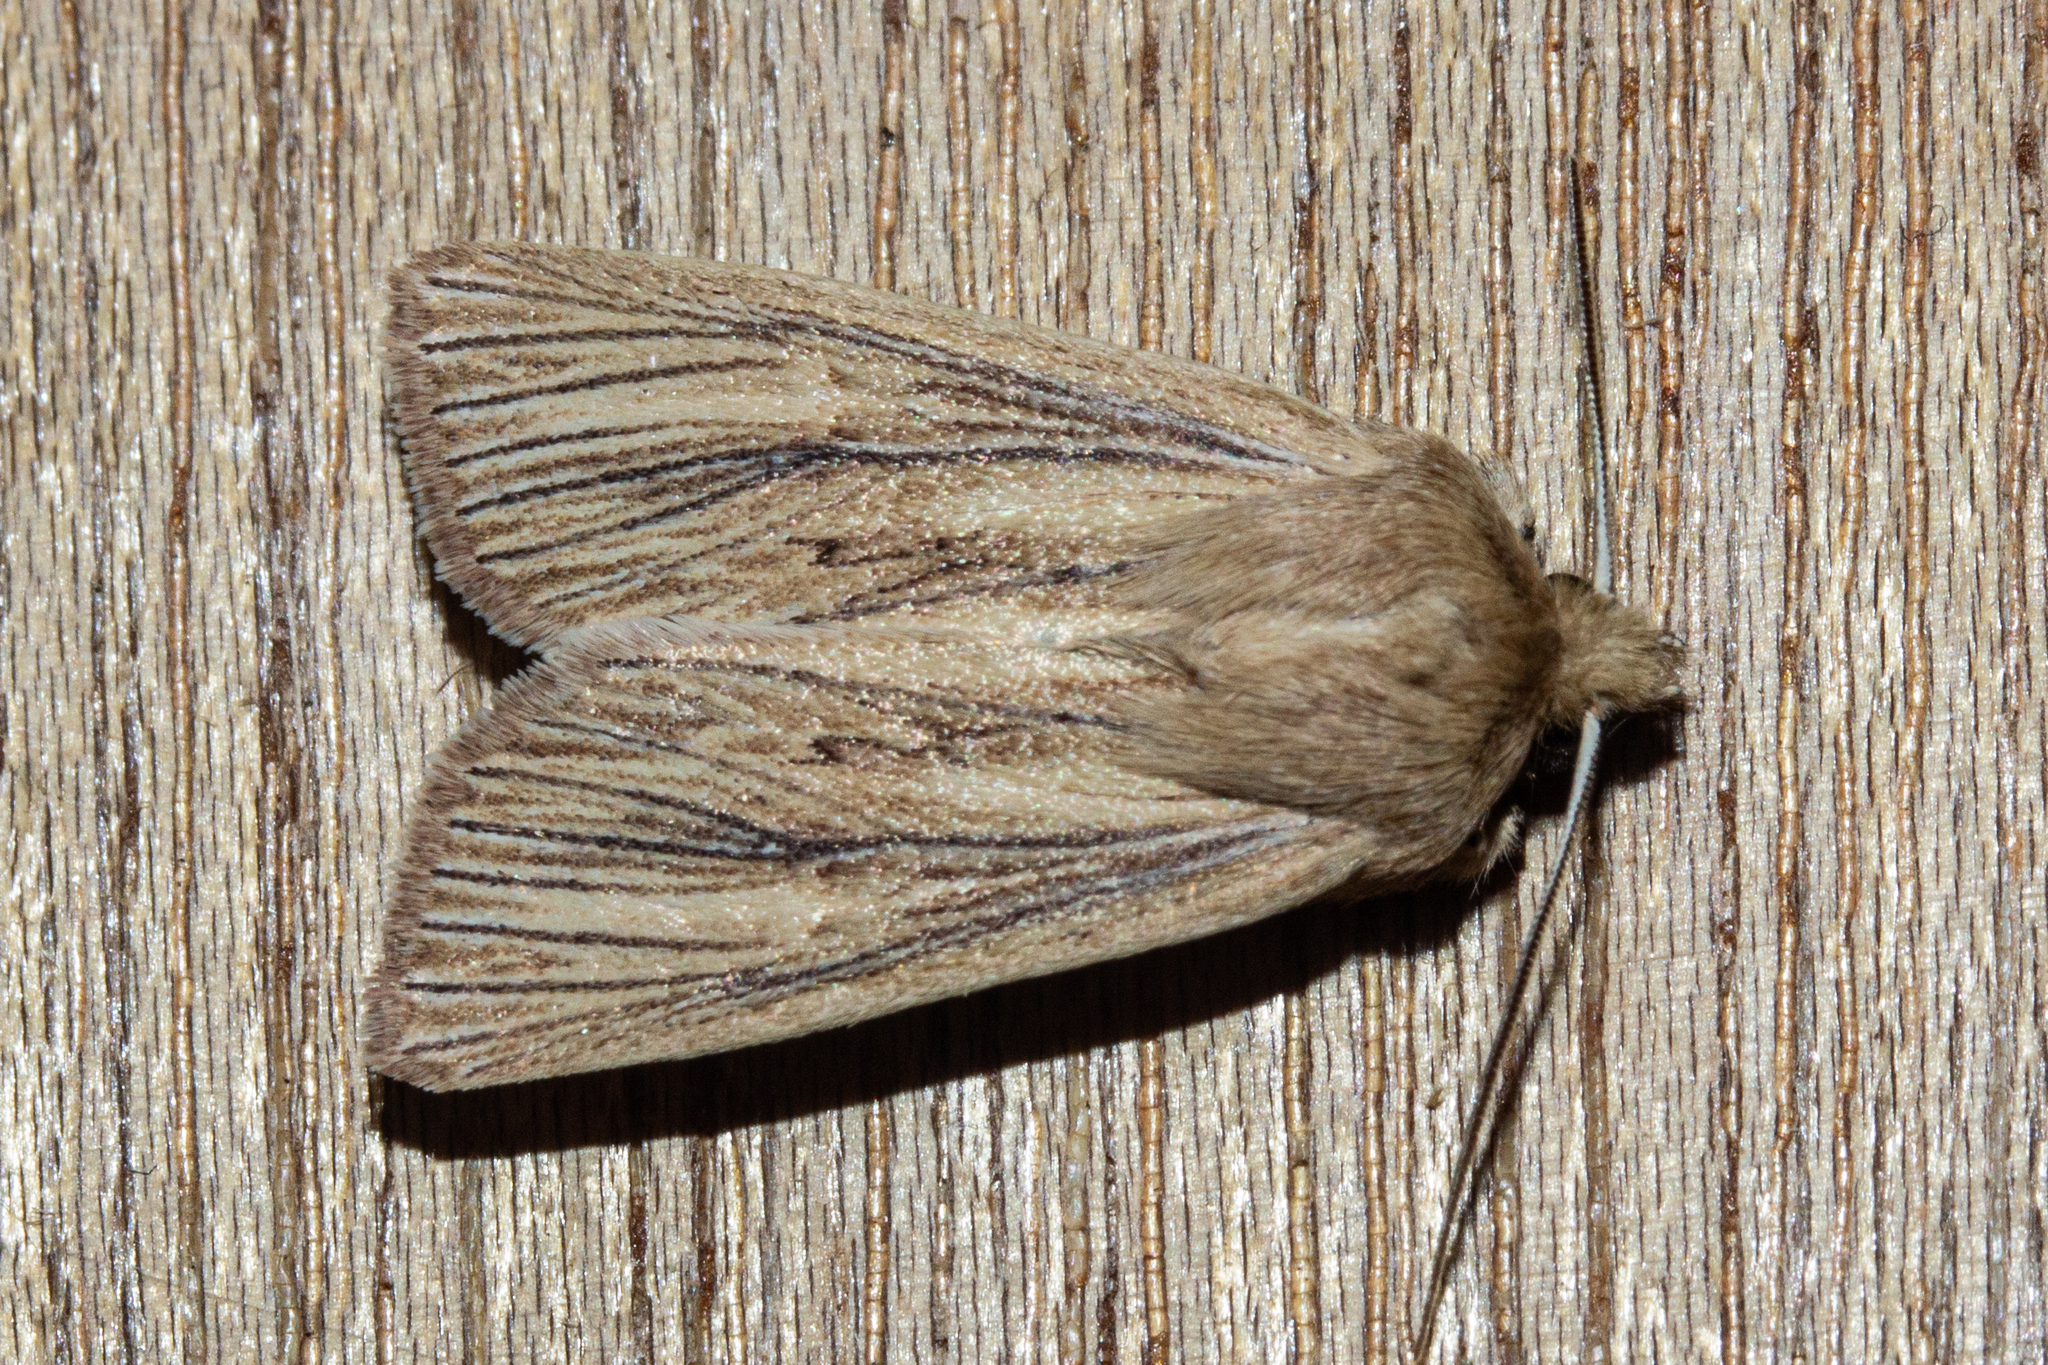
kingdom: Animalia
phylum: Arthropoda
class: Insecta
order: Lepidoptera
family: Noctuidae
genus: Ichneutica
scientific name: Ichneutica arotis
